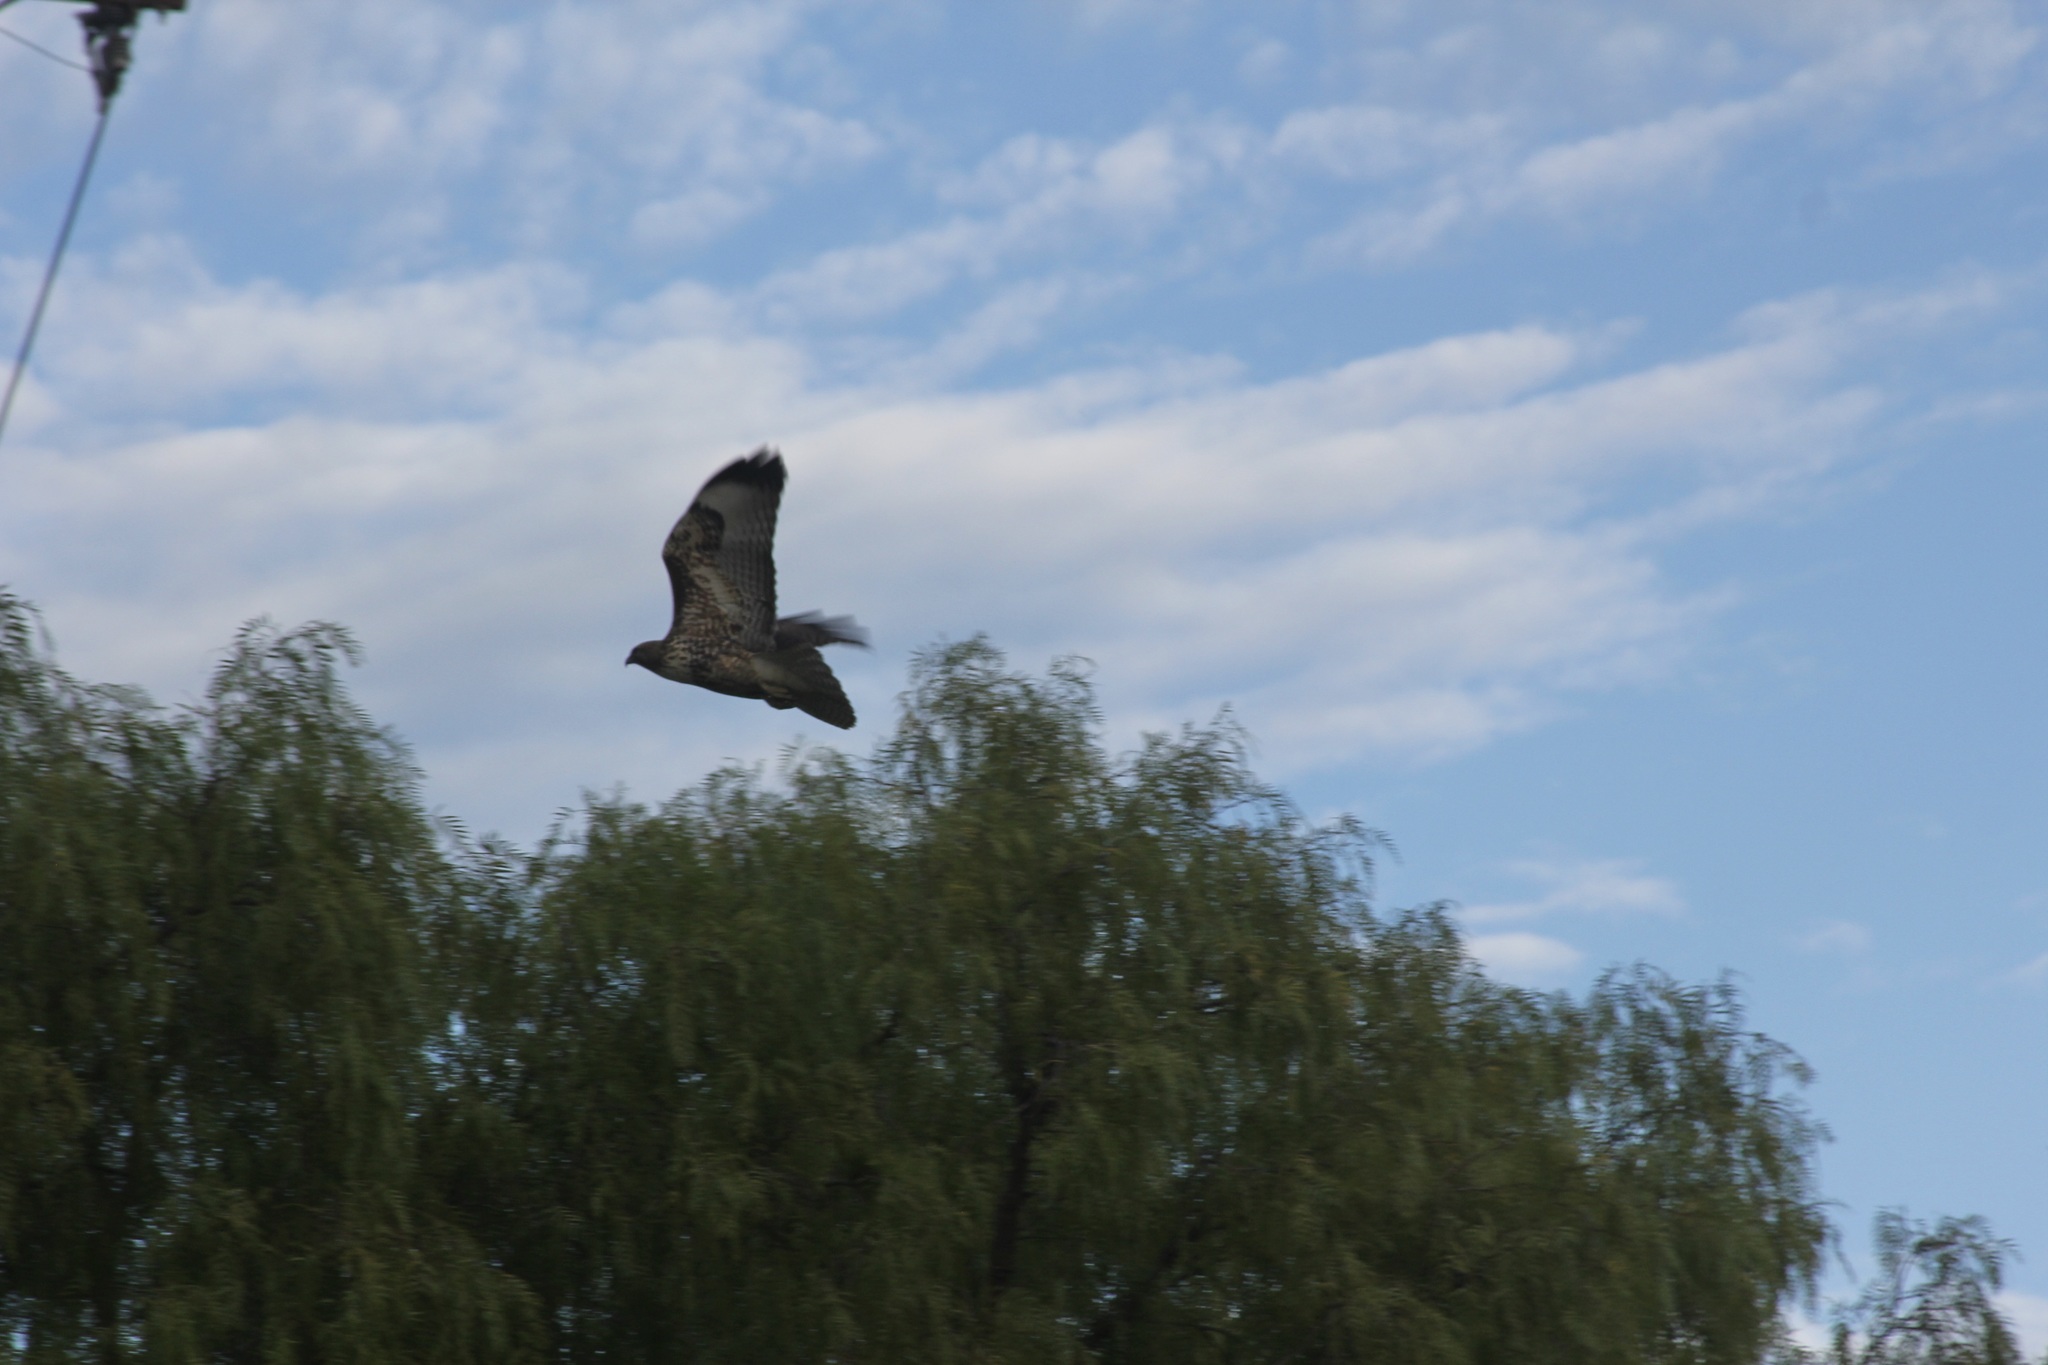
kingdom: Animalia
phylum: Chordata
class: Aves
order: Accipitriformes
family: Accipitridae
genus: Buteo
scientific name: Buteo jamaicensis
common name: Red-tailed hawk
